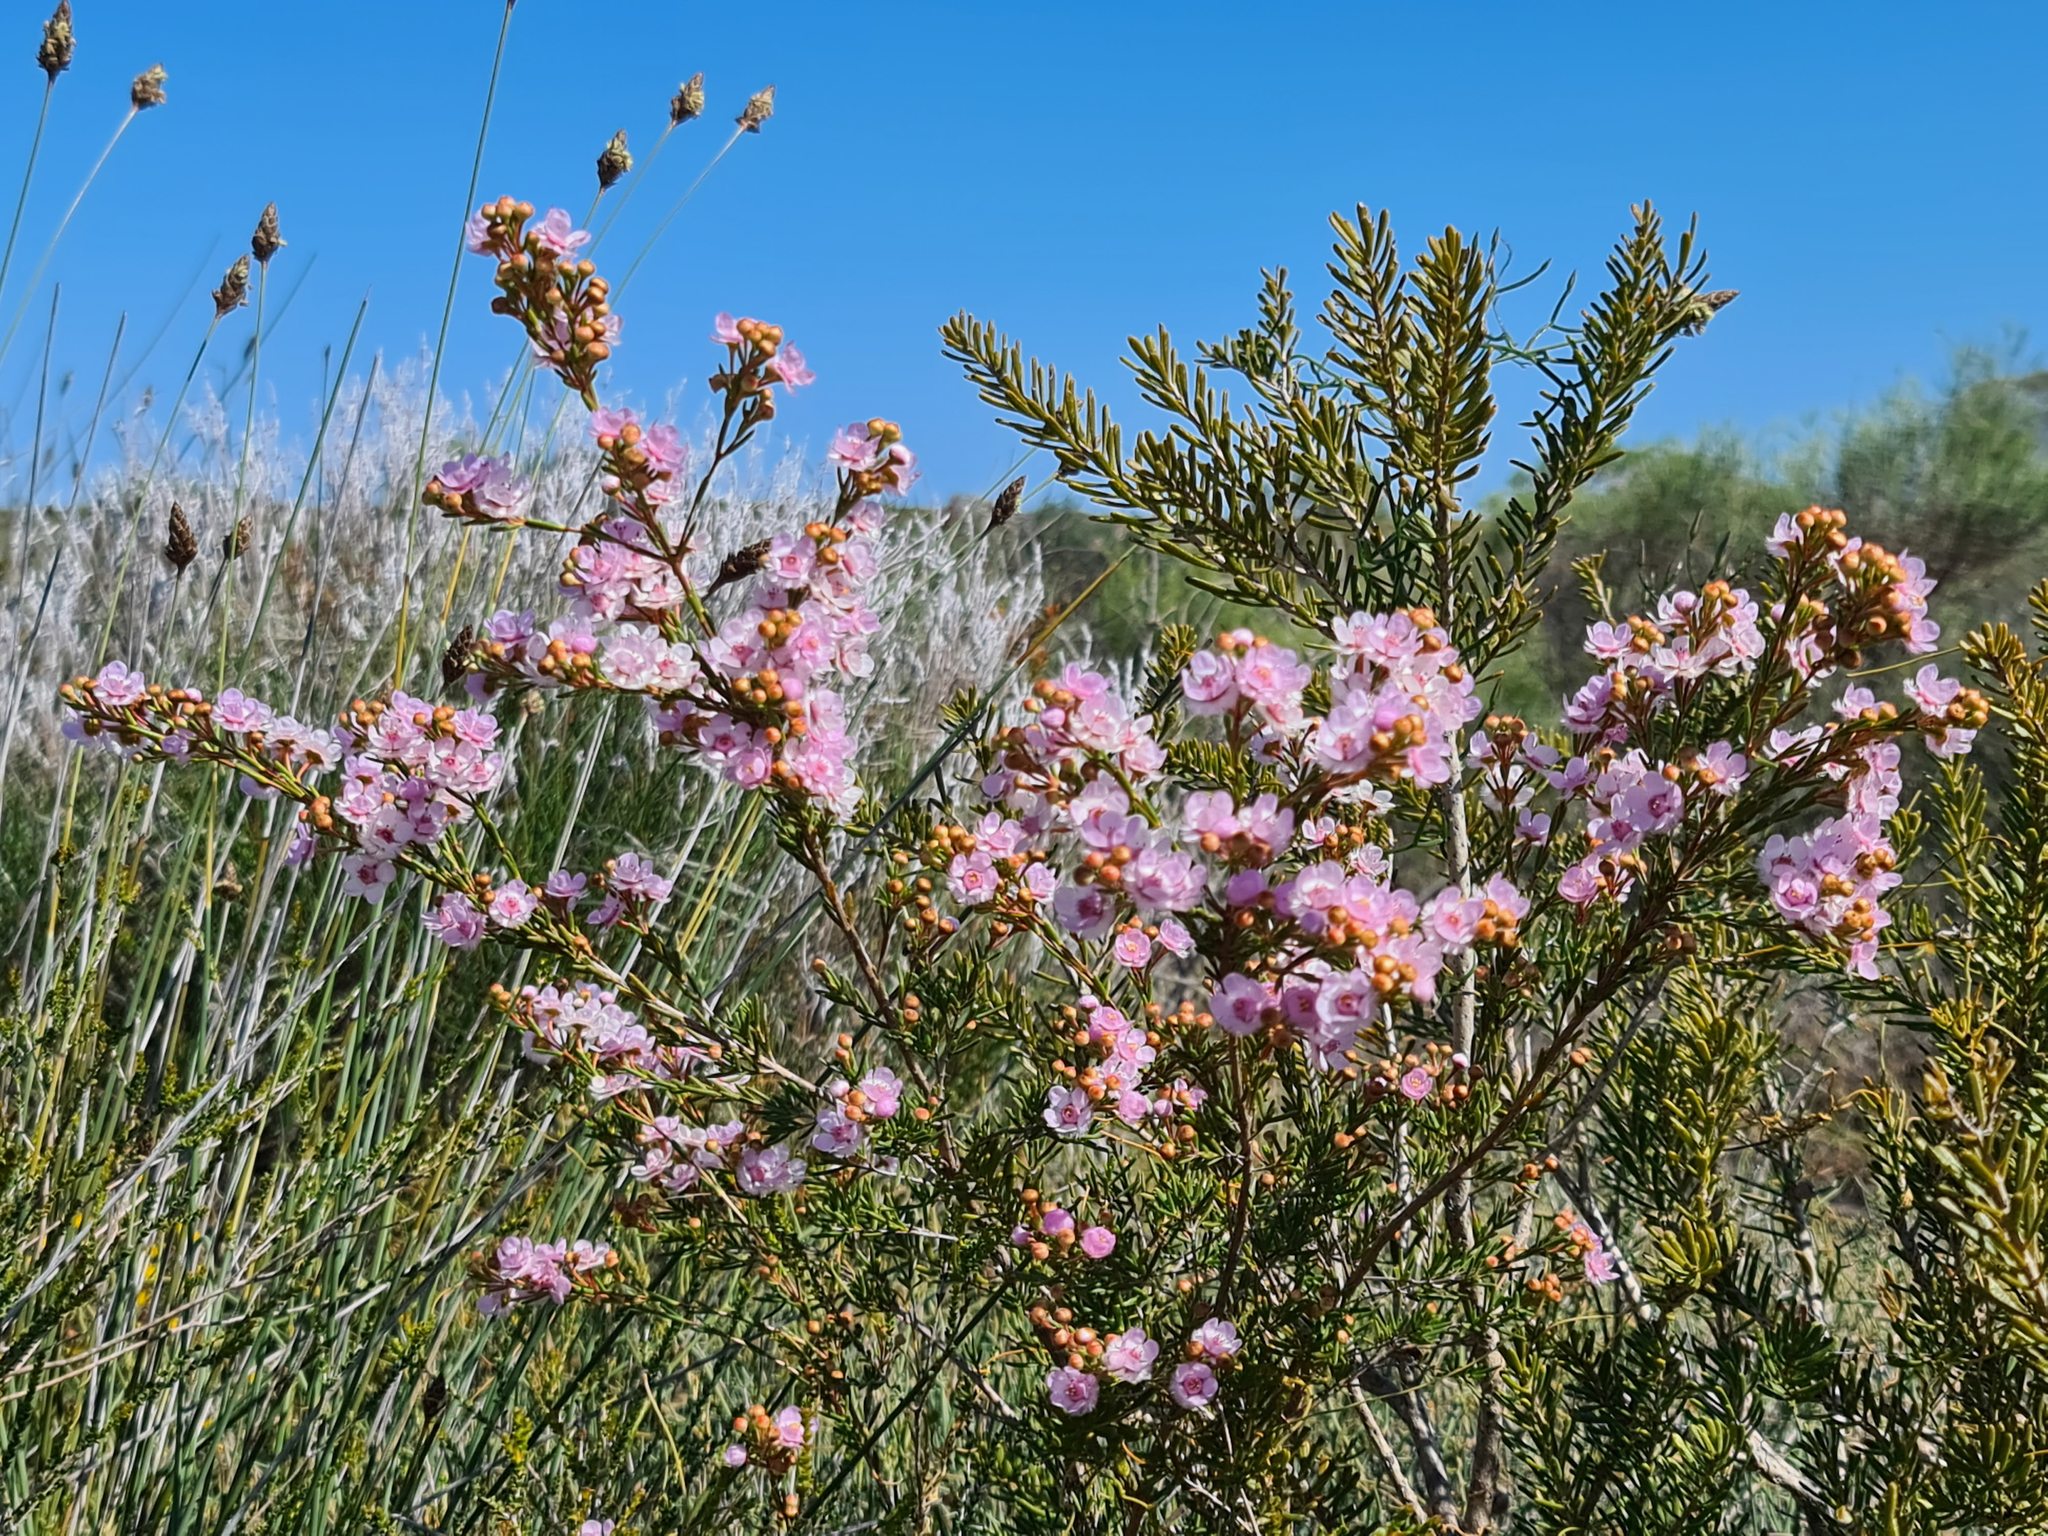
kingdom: Plantae
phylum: Tracheophyta
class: Magnoliopsida
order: Myrtales
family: Myrtaceae
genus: Verticordia
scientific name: Verticordia picta
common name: Painted feather-flower
